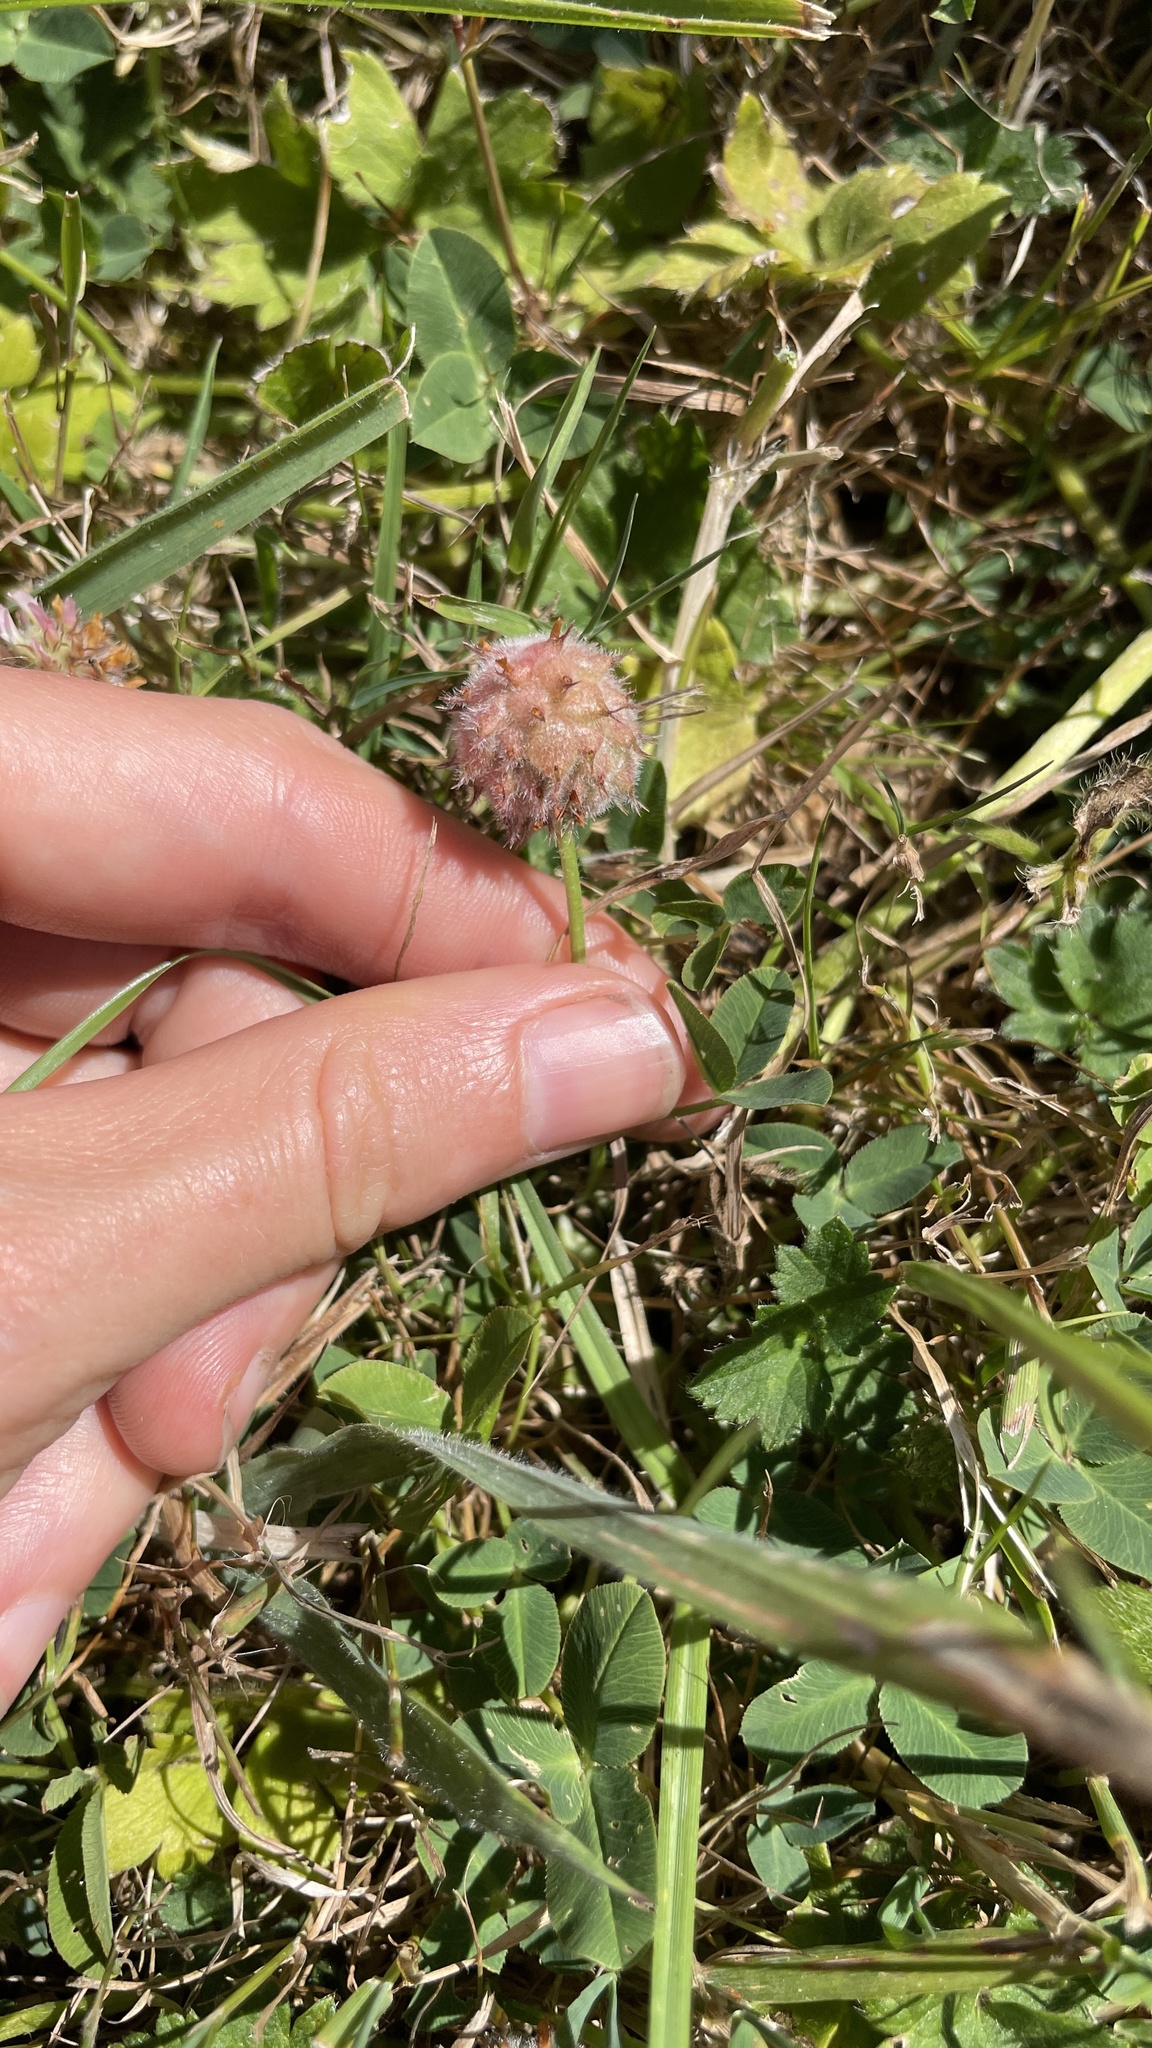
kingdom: Plantae
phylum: Tracheophyta
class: Magnoliopsida
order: Fabales
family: Fabaceae
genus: Trifolium
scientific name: Trifolium fragiferum
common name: Strawberry clover
